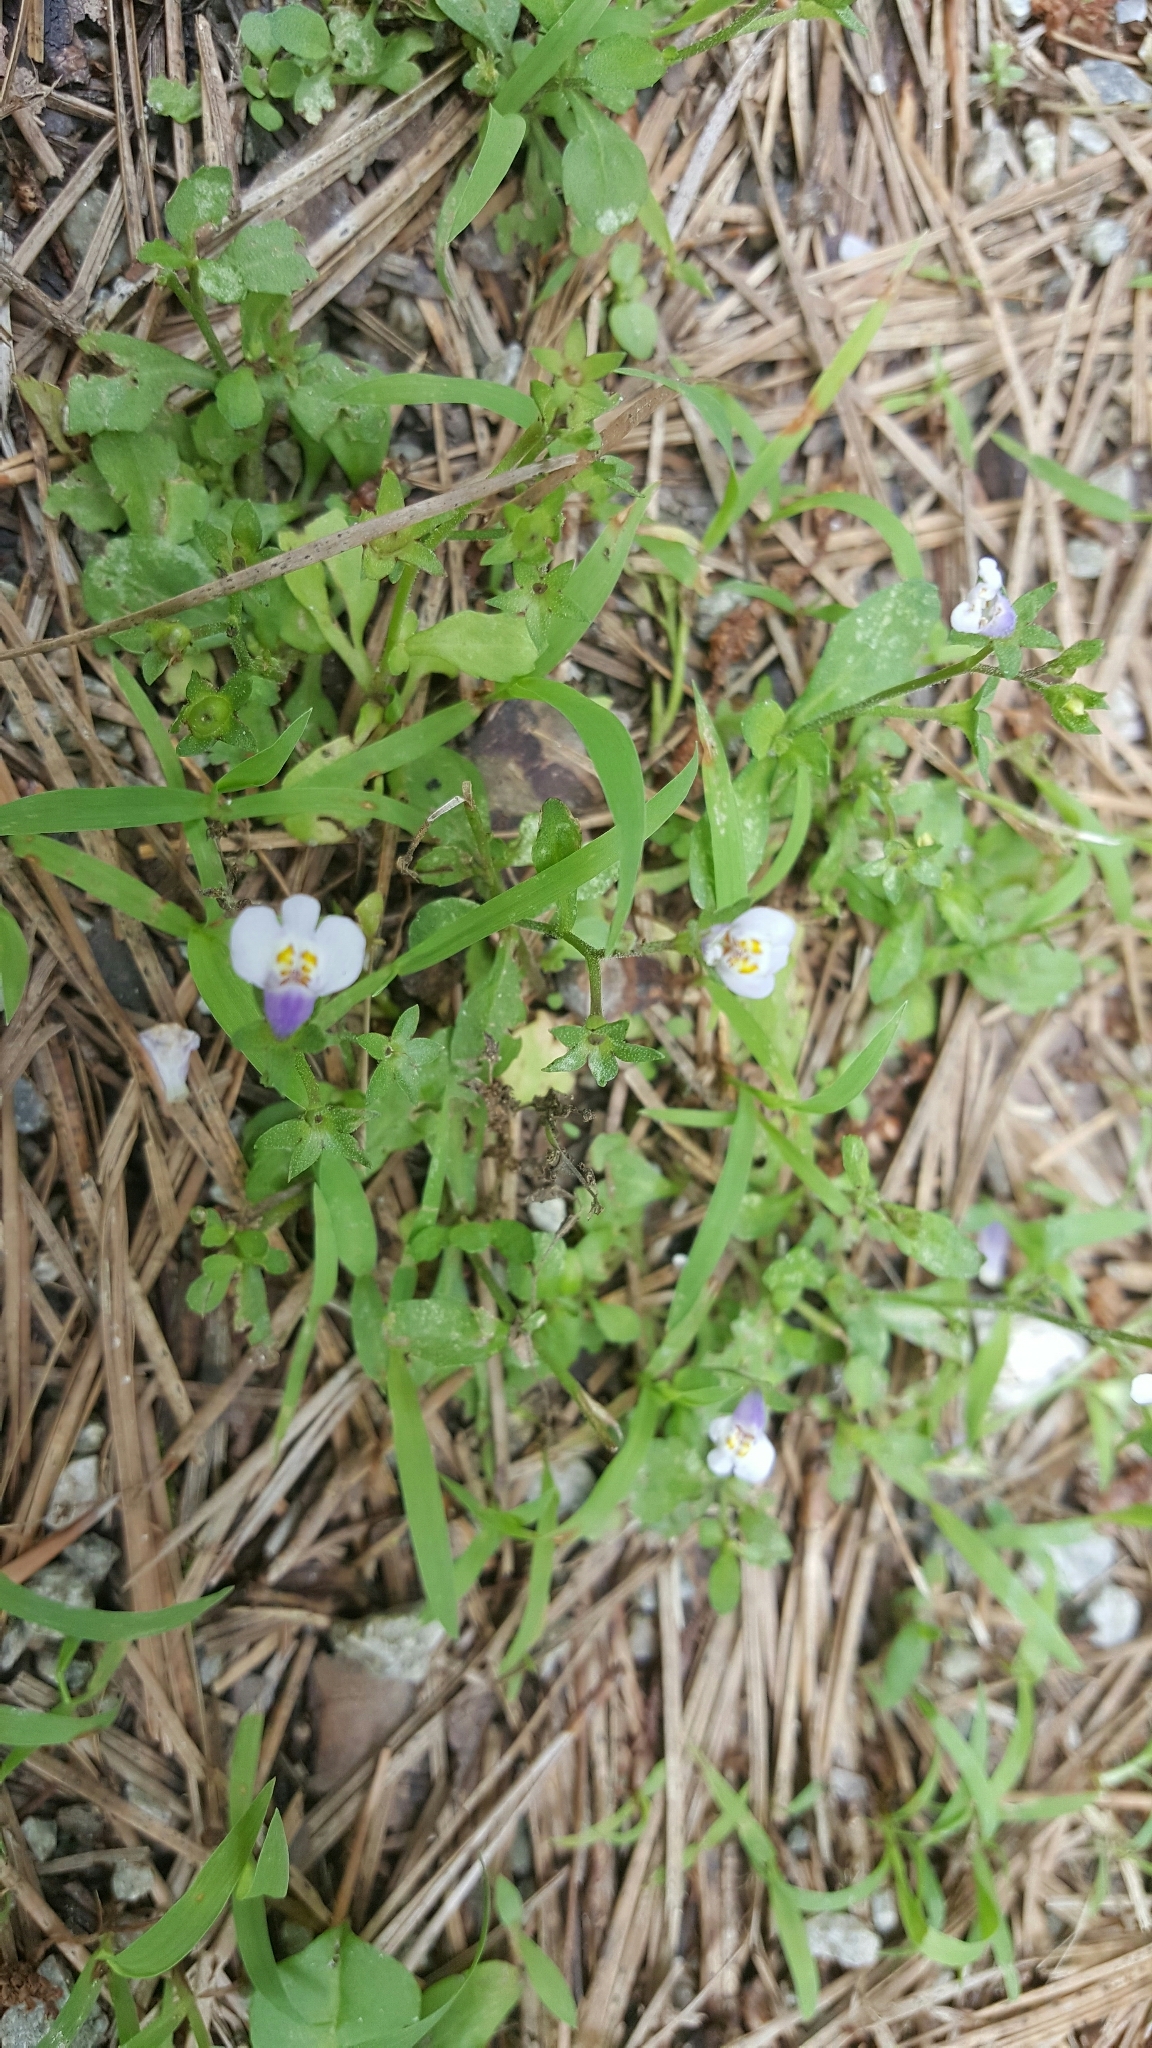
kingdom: Plantae
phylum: Tracheophyta
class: Magnoliopsida
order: Lamiales
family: Mazaceae
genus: Mazus
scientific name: Mazus pumilus
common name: Japanese mazus
